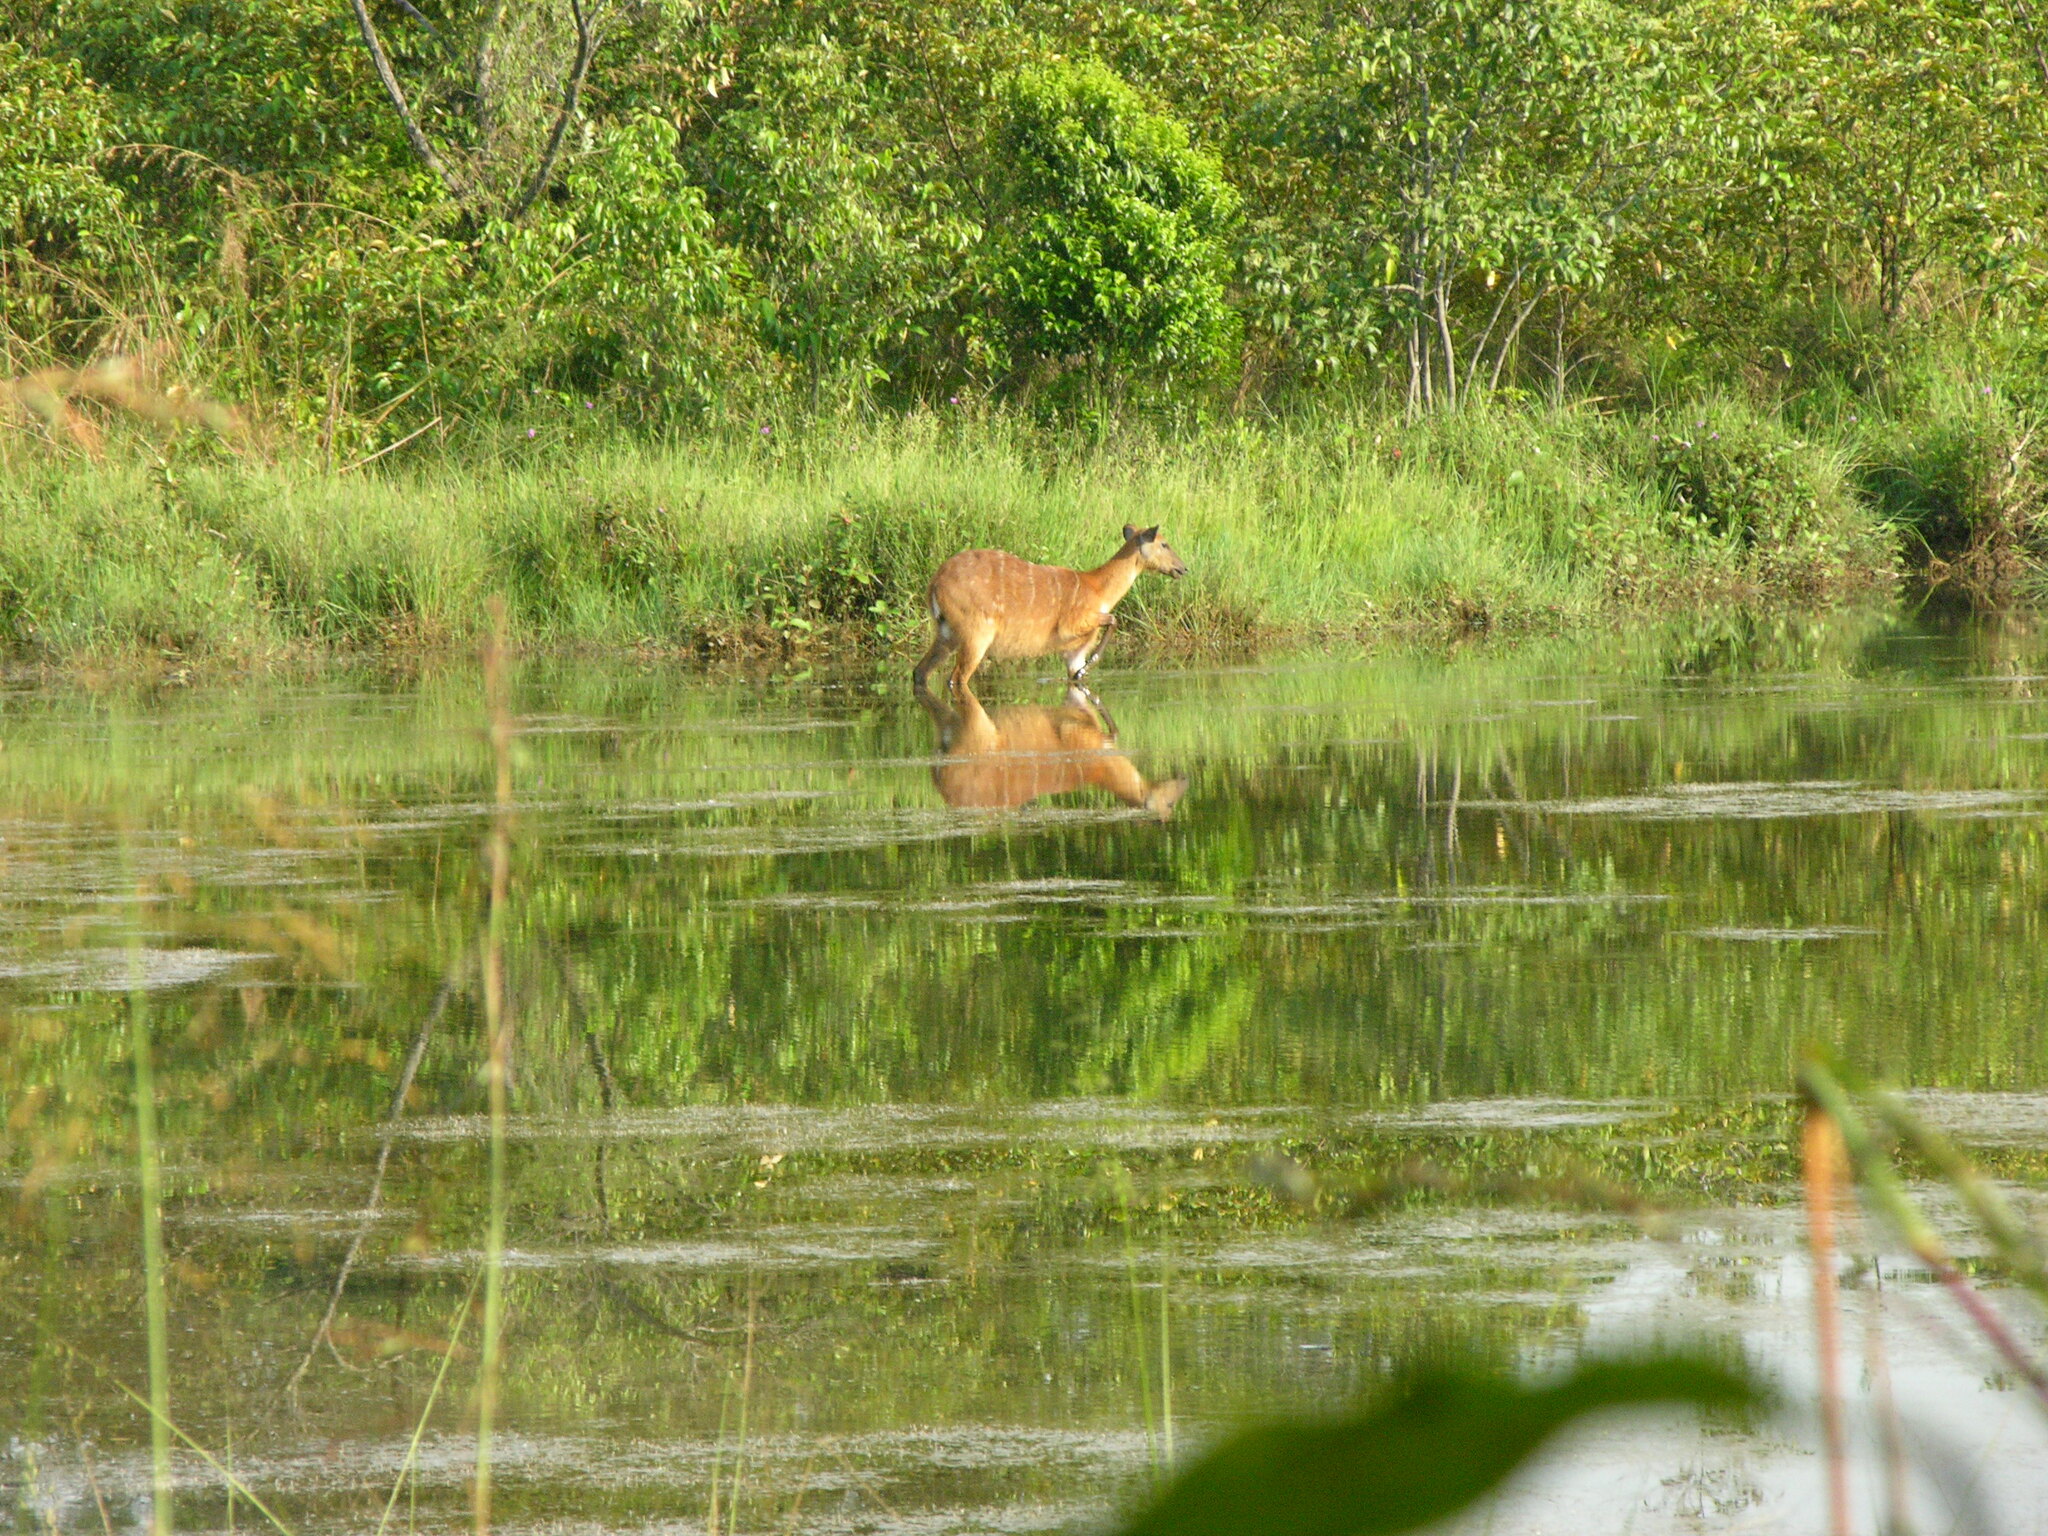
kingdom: Animalia
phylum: Chordata
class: Mammalia
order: Artiodactyla
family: Bovidae
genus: Tragelaphus
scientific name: Tragelaphus spekii
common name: Sitatunga
